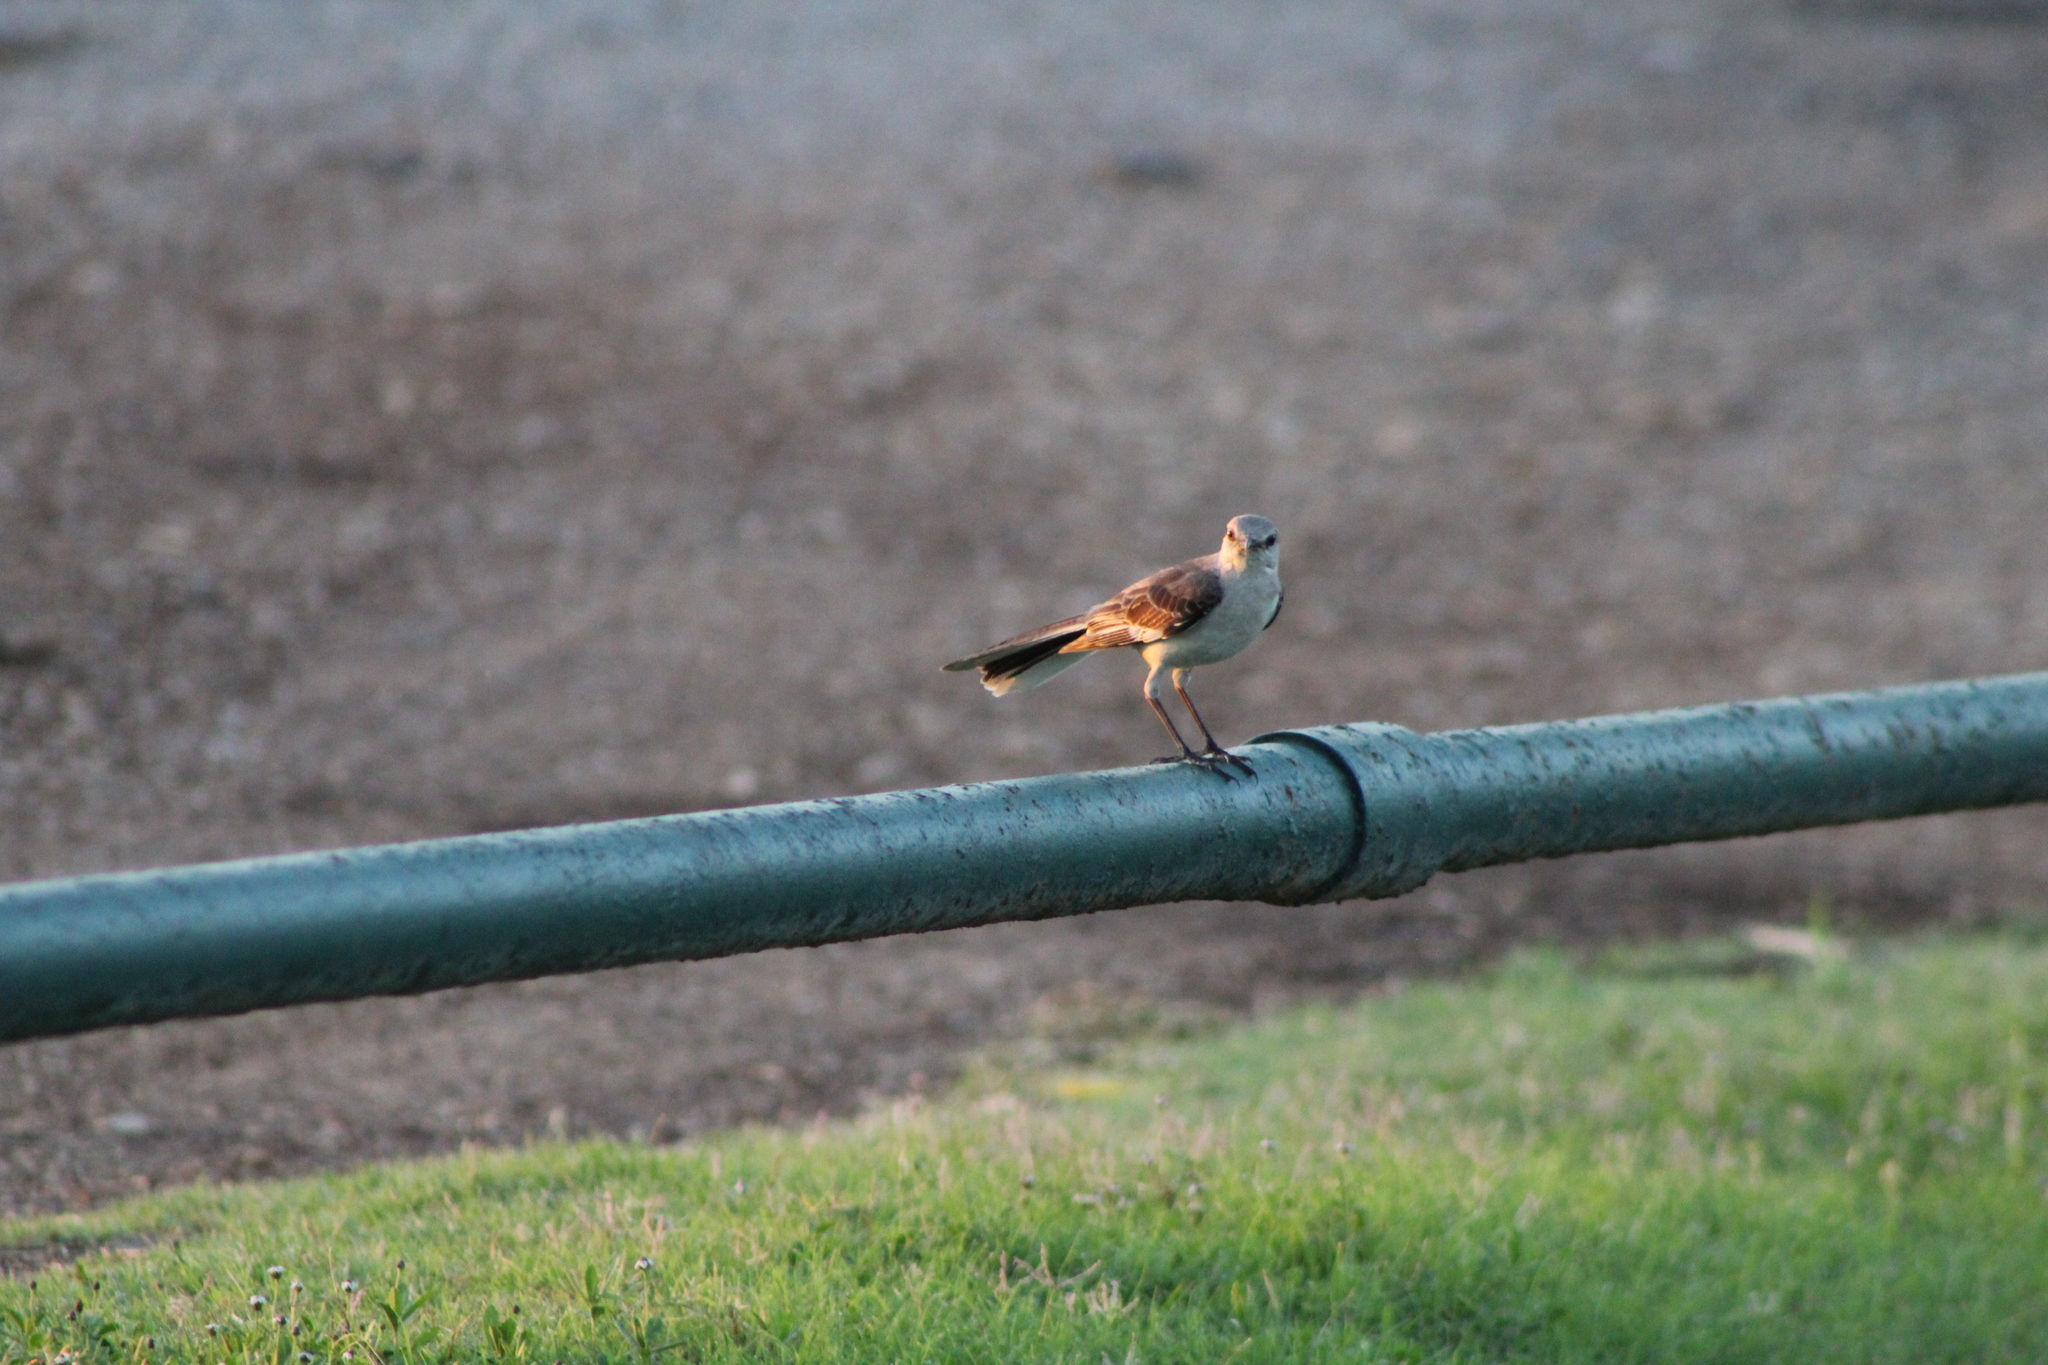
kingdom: Animalia
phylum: Chordata
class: Aves
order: Passeriformes
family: Mimidae
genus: Mimus
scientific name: Mimus polyglottos
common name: Northern mockingbird
